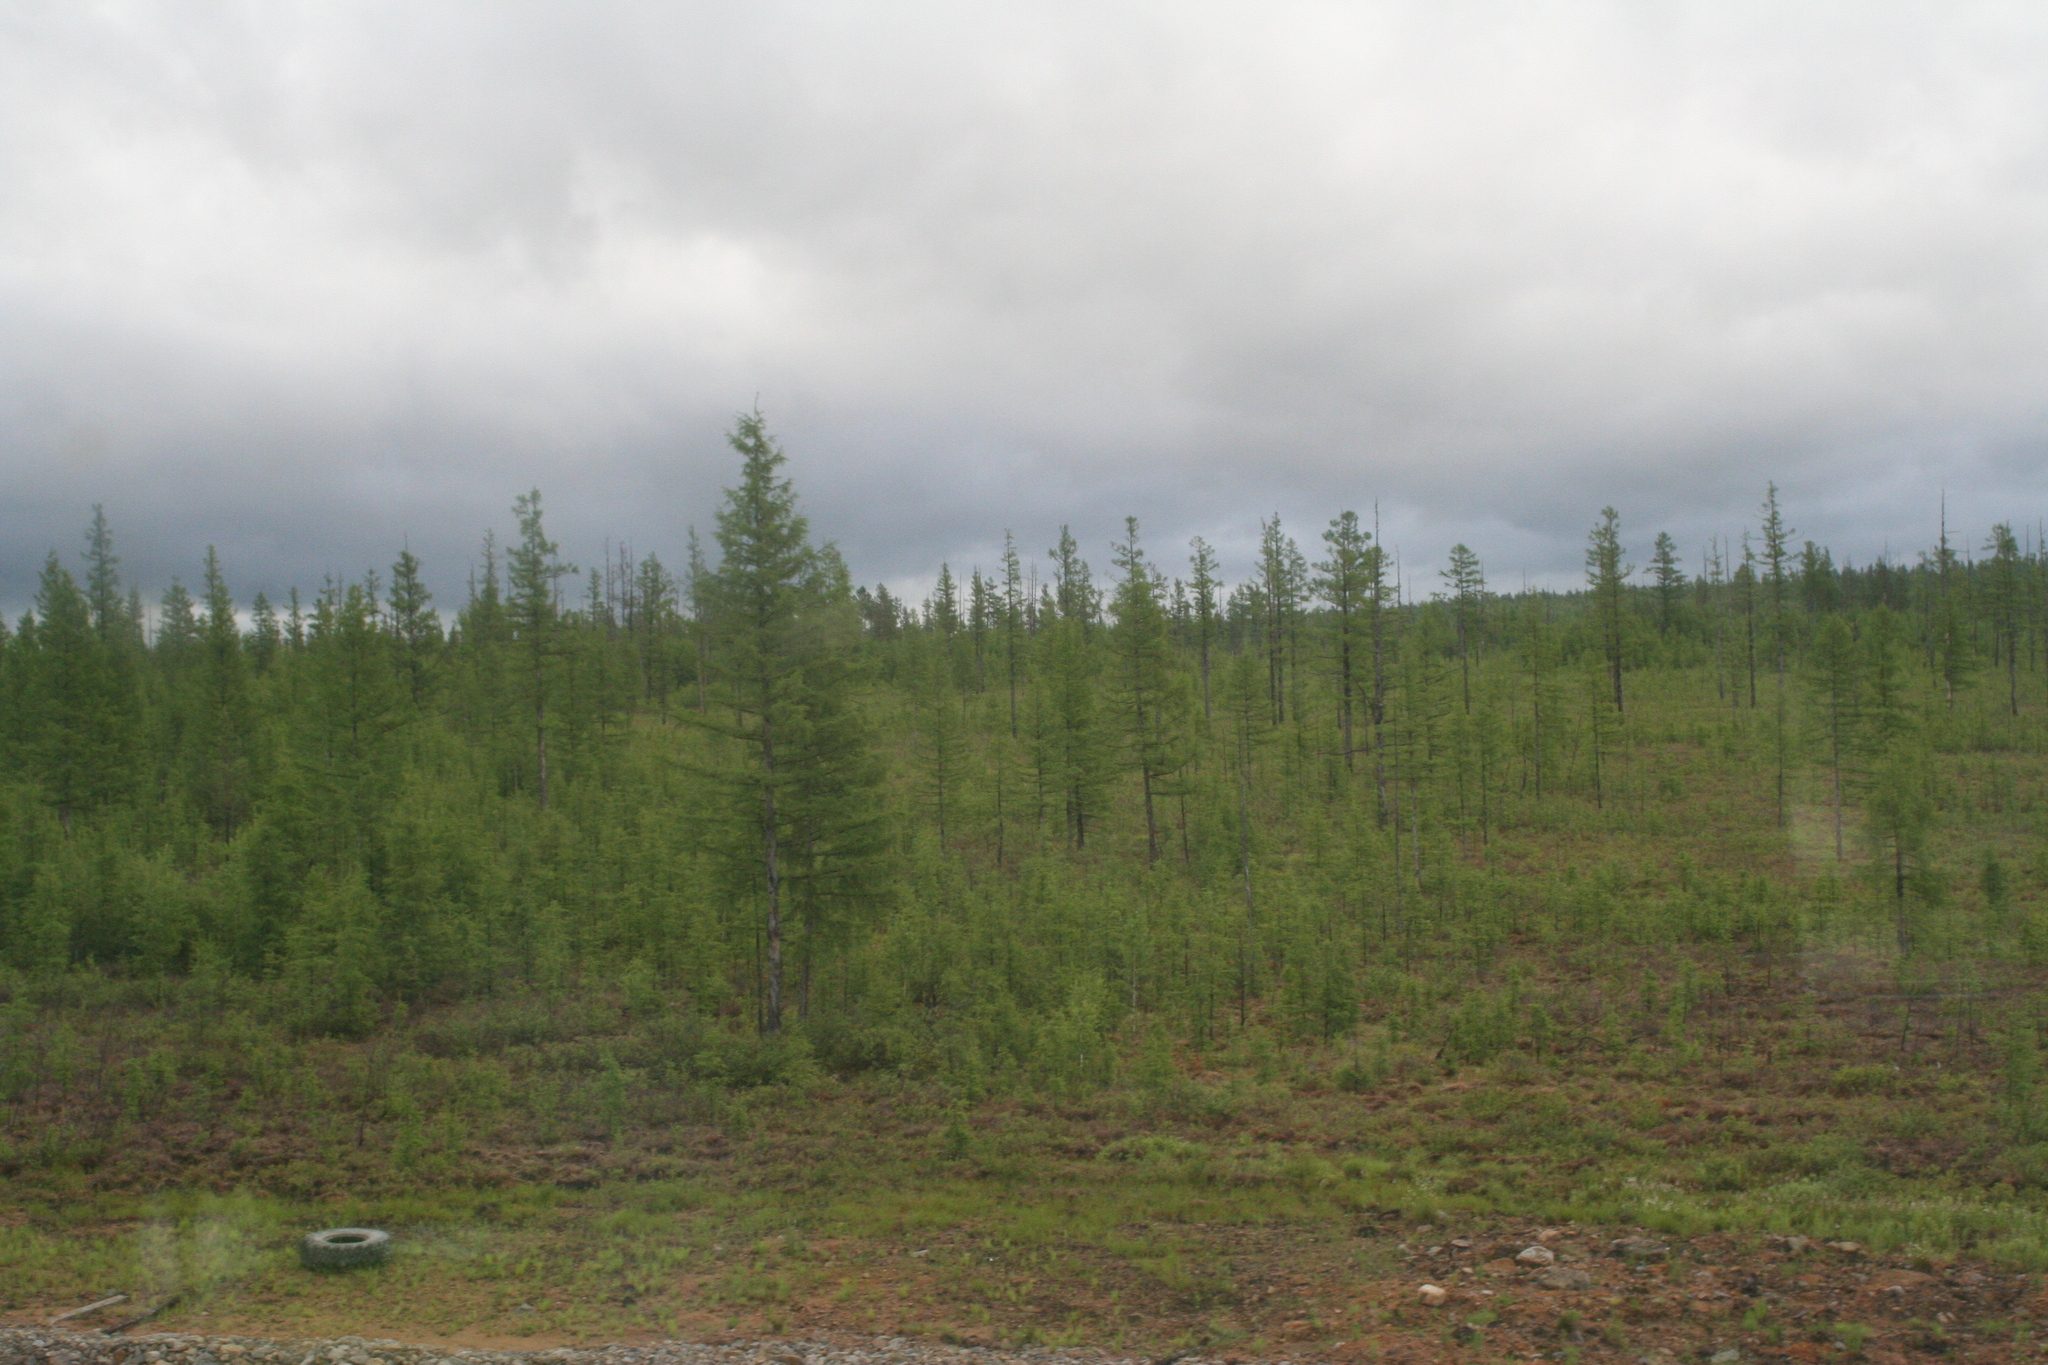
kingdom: Plantae
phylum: Tracheophyta
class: Pinopsida
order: Pinales
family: Pinaceae
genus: Larix
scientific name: Larix gmelinii
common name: Dahurian larch
